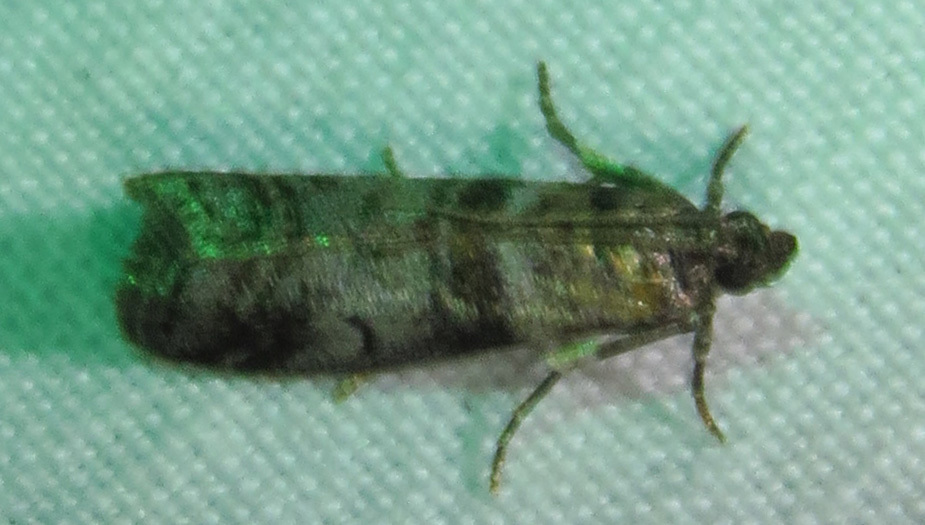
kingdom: Animalia
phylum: Arthropoda
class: Insecta
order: Lepidoptera
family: Pyralidae
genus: Sciota
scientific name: Sciota uvinella
